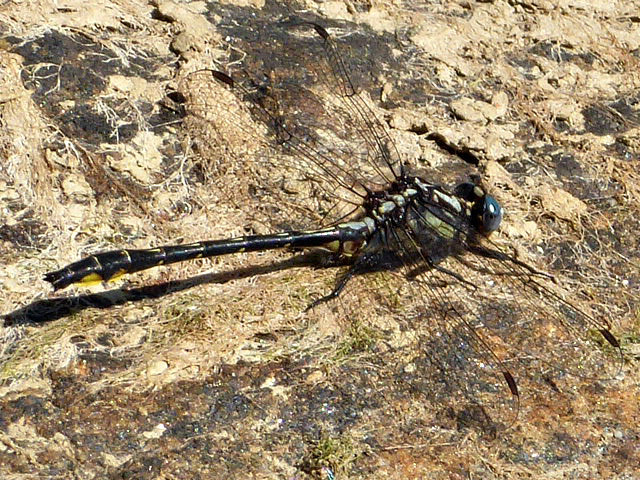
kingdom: Animalia
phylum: Arthropoda
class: Insecta
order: Odonata
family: Gomphidae
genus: Phanogomphus
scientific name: Phanogomphus quadricolor
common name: Rapids clubtail
